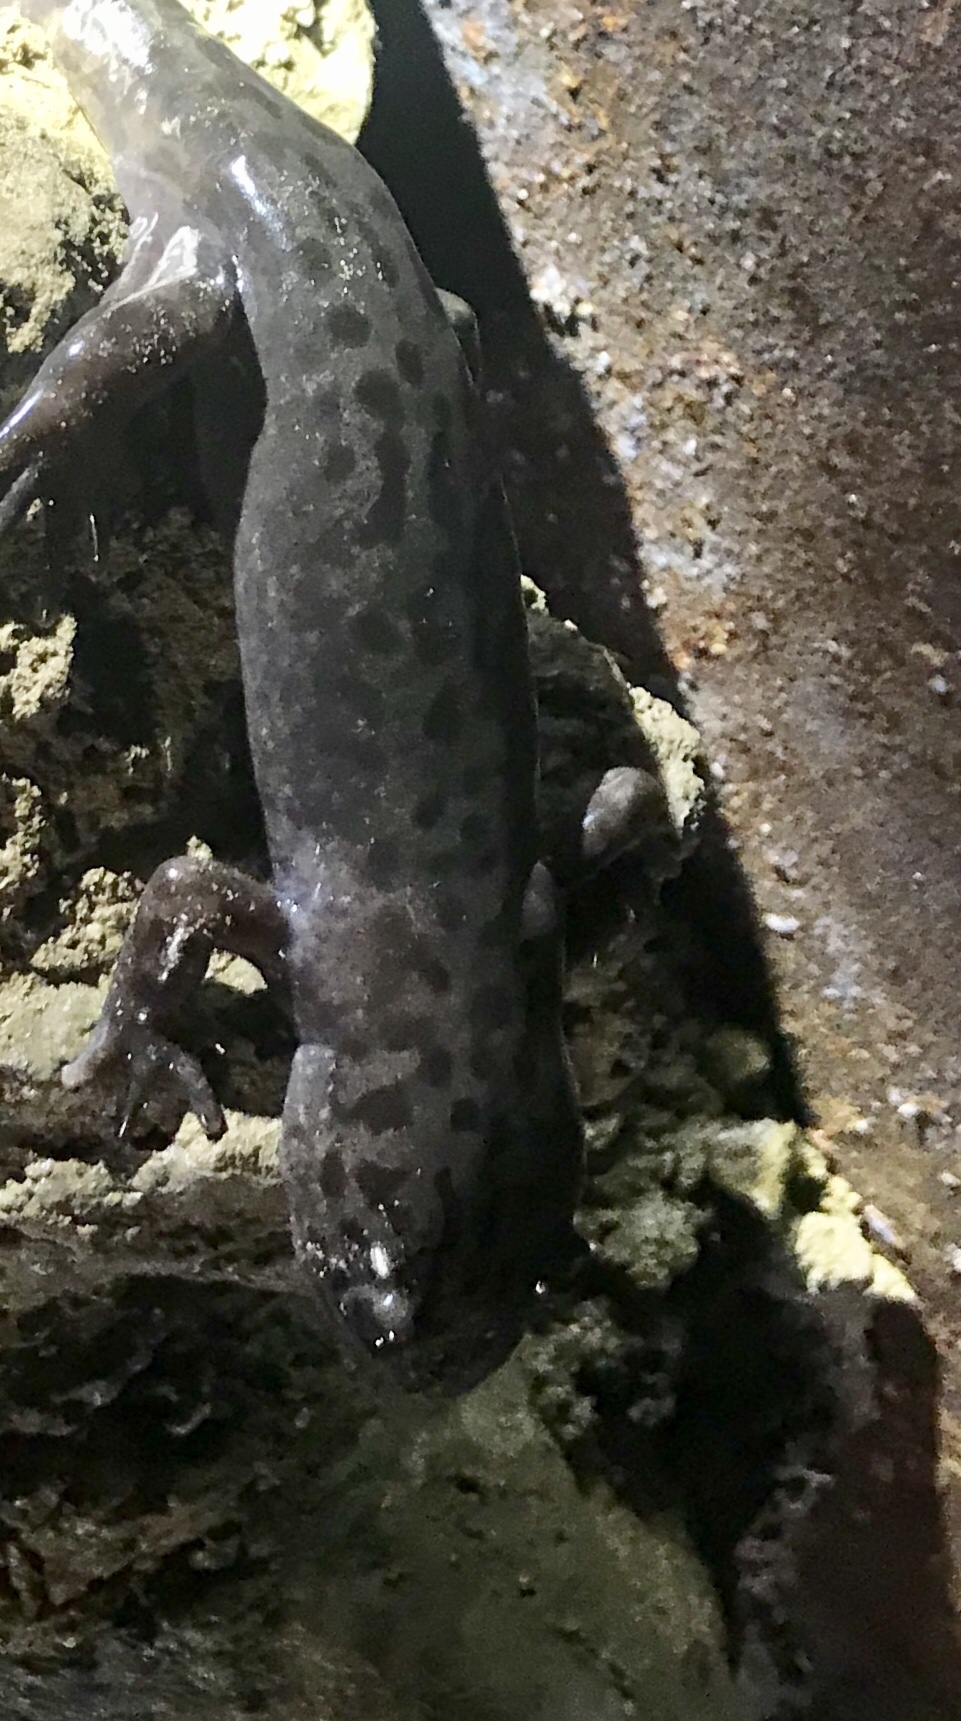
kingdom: Animalia
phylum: Chordata
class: Amphibia
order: Caudata
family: Ambystomatidae
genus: Dicamptodon
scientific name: Dicamptodon tenebrosus
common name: Coastal giant salamander
